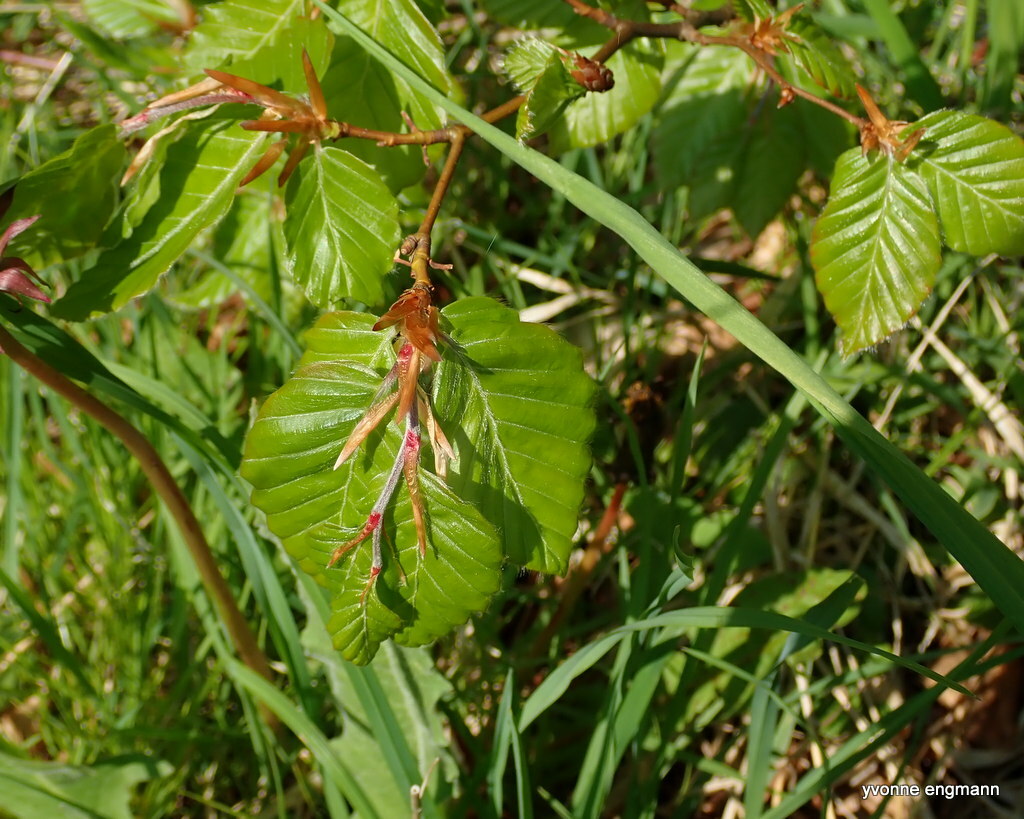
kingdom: Plantae
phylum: Tracheophyta
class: Magnoliopsida
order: Fagales
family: Fagaceae
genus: Fagus
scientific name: Fagus sylvatica
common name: Beech
